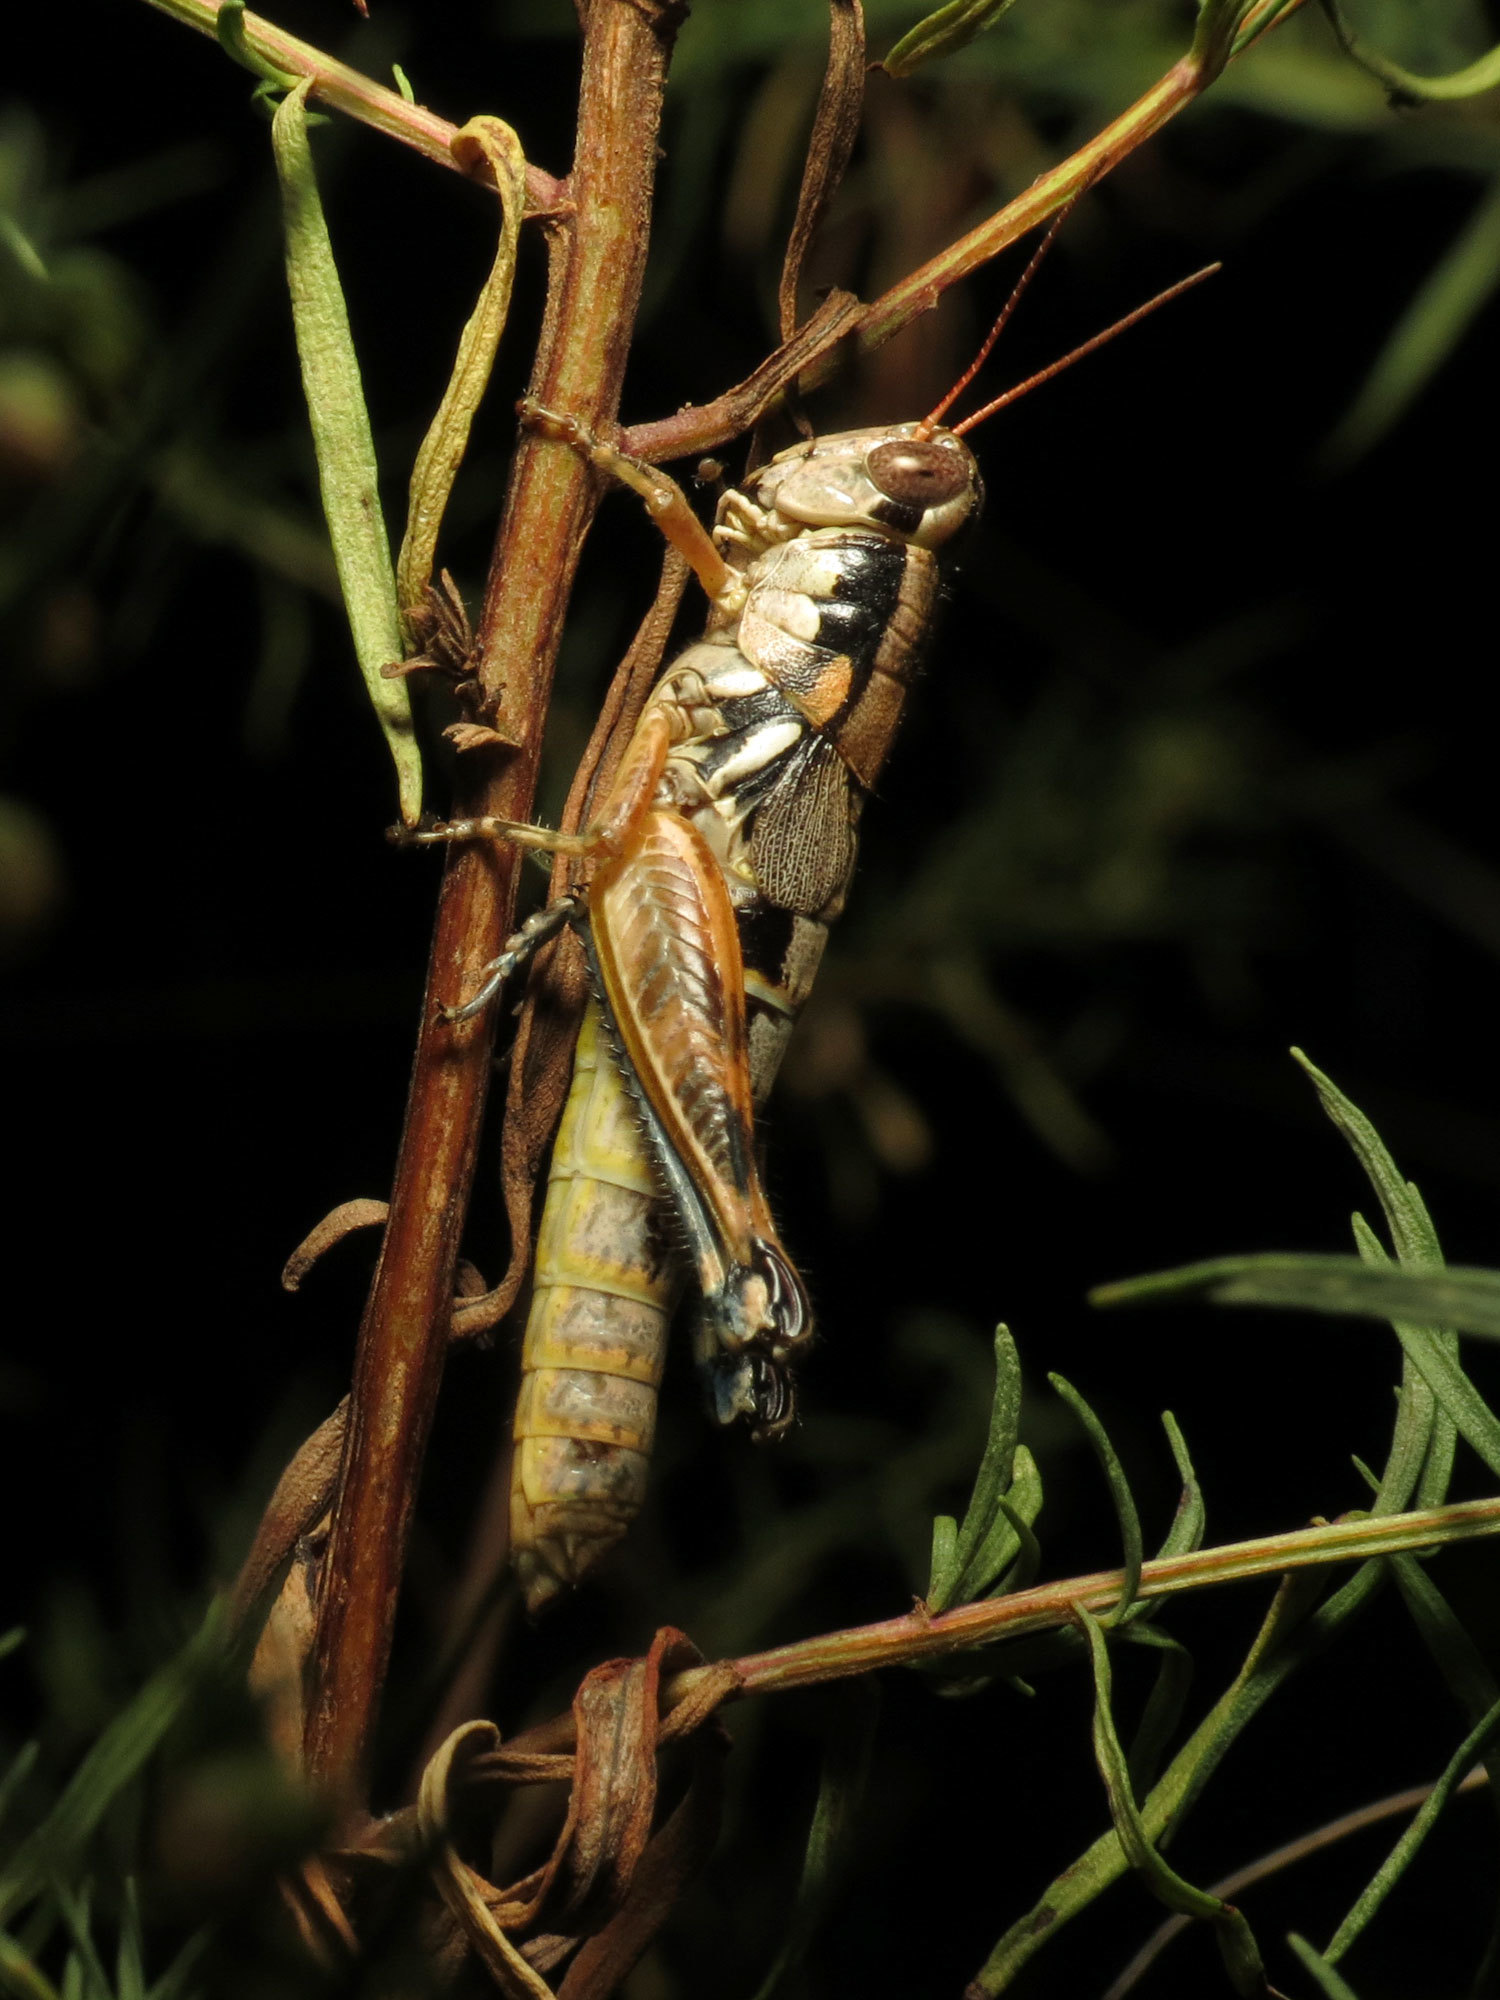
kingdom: Animalia
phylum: Arthropoda
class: Insecta
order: Orthoptera
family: Acrididae
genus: Melanoplus
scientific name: Melanoplus aridus
